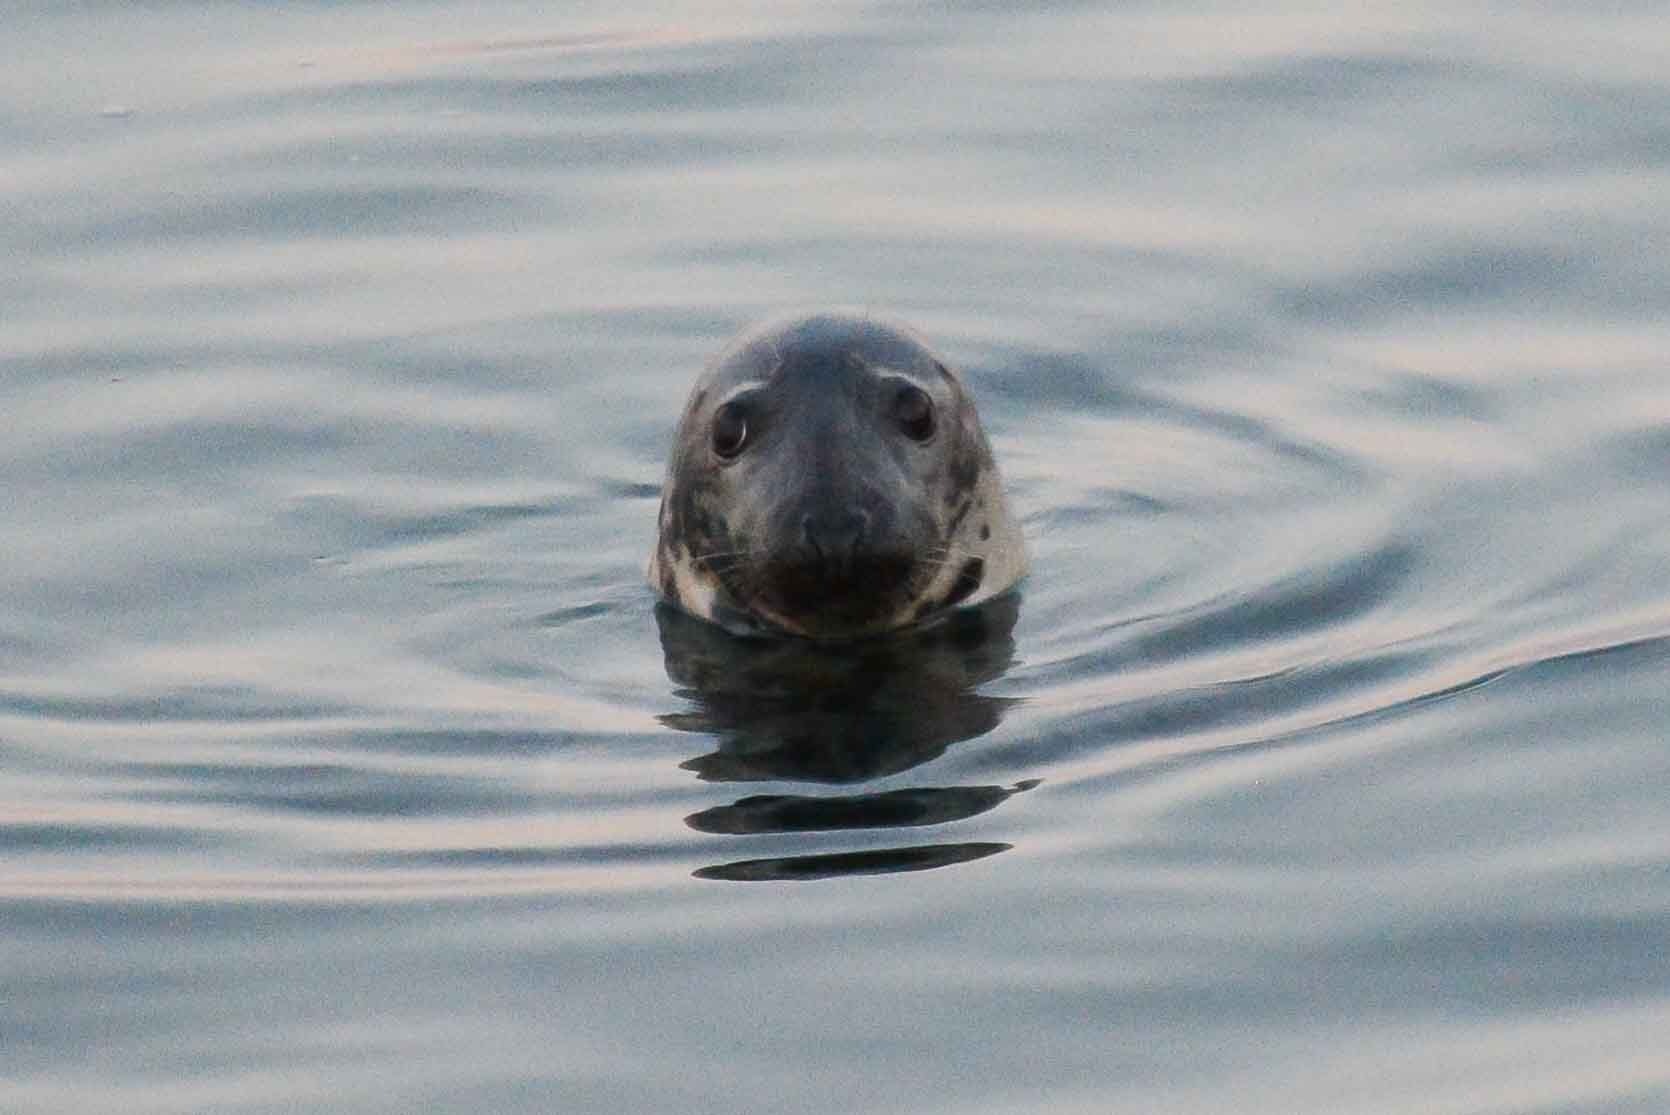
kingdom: Animalia
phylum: Chordata
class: Mammalia
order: Carnivora
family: Phocidae
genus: Halichoerus
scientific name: Halichoerus grypus
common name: Grey seal
